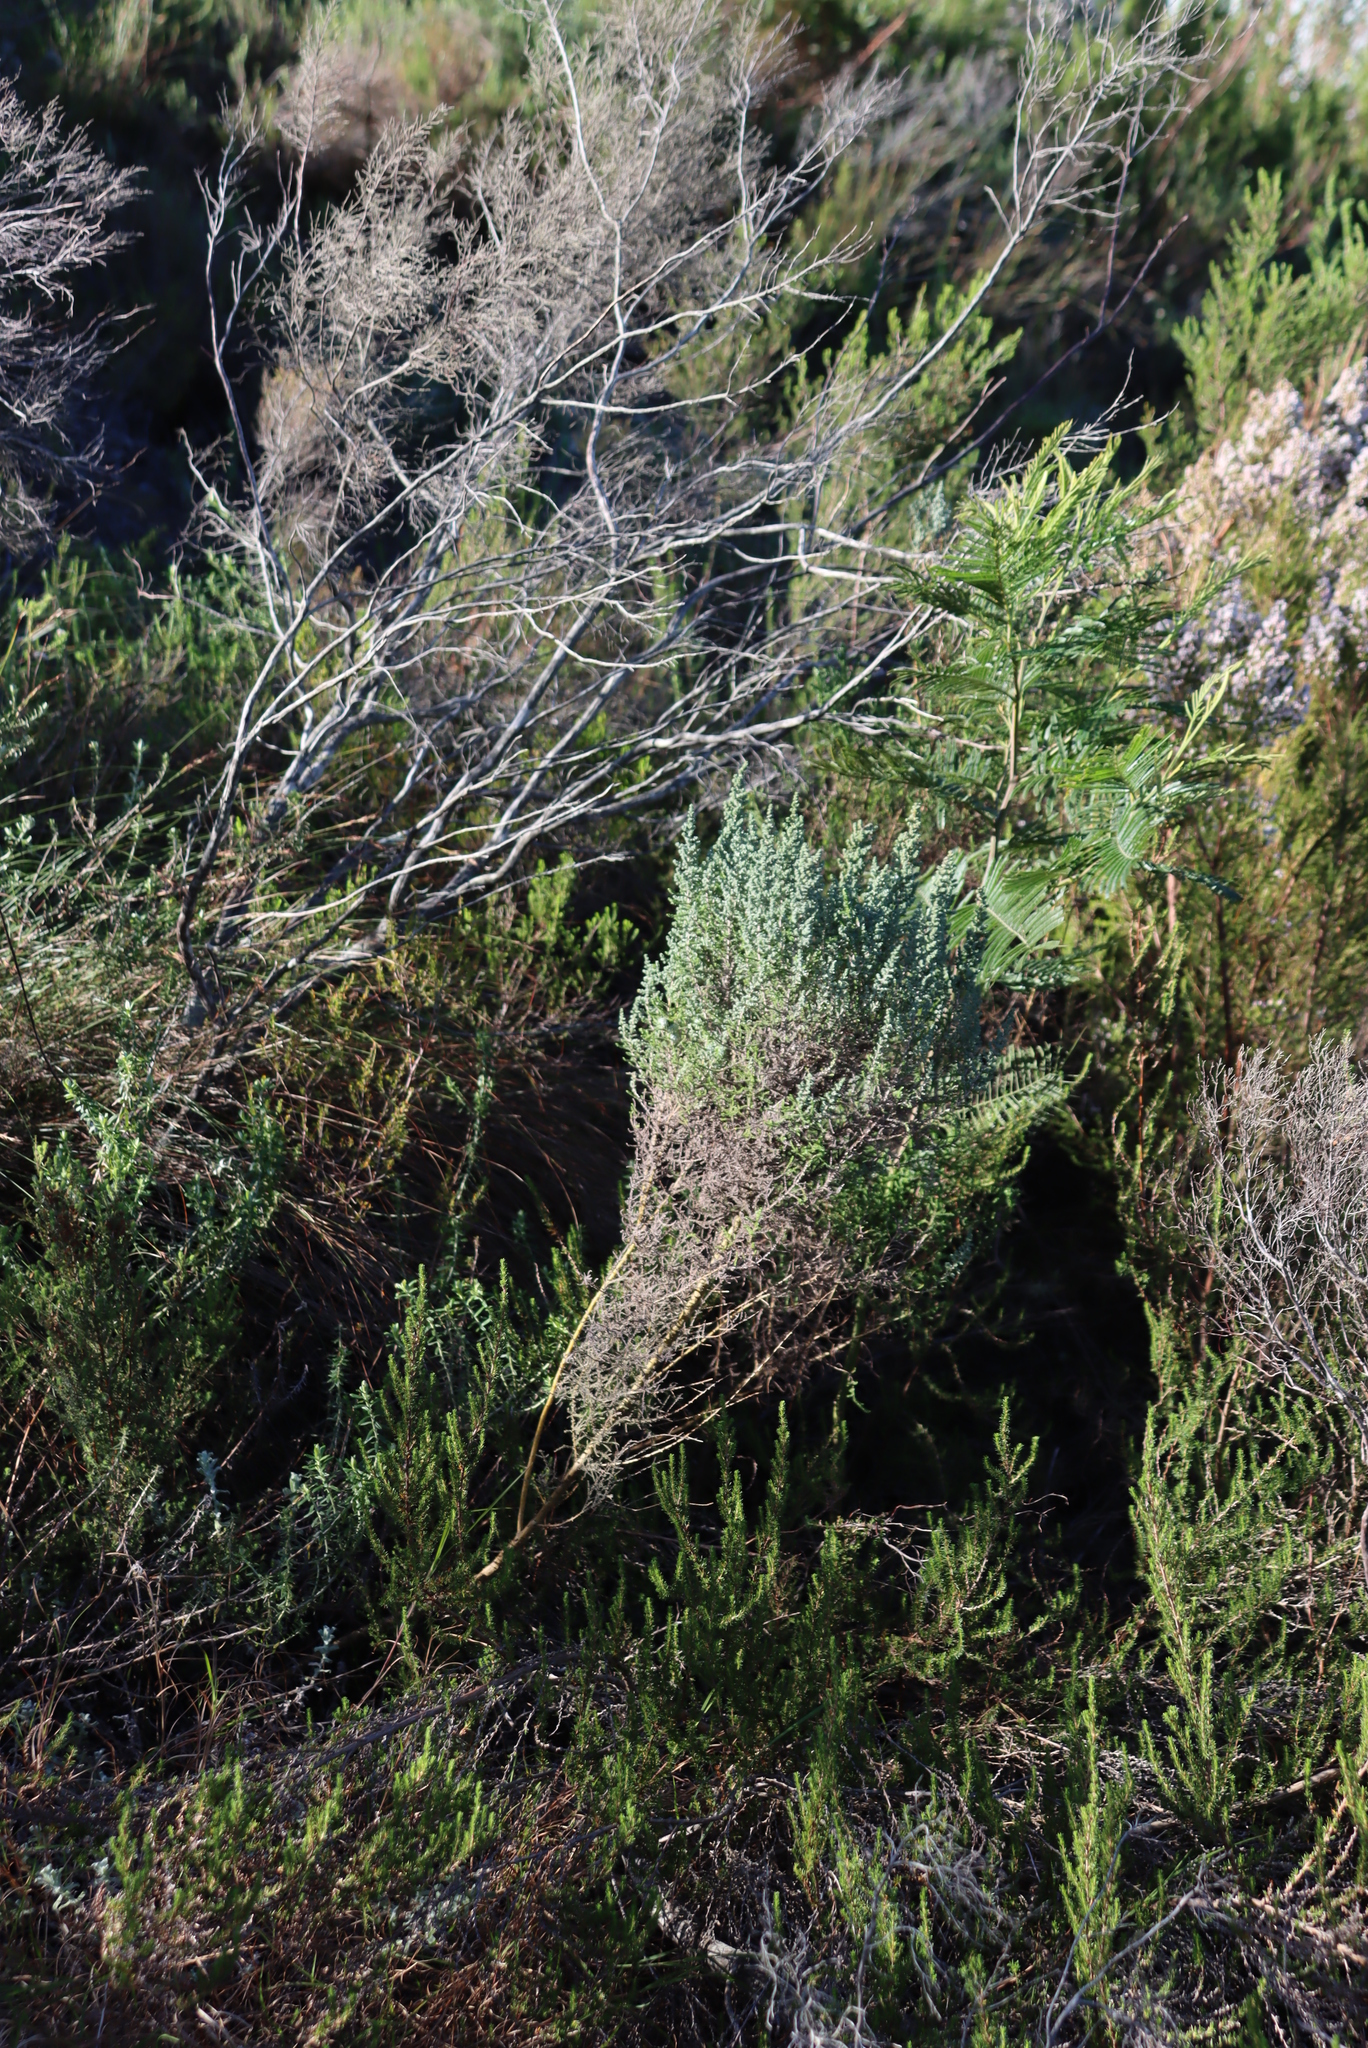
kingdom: Plantae
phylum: Tracheophyta
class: Magnoliopsida
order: Fabales
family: Fabaceae
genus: Acacia
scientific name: Acacia mearnsii
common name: Black wattle
